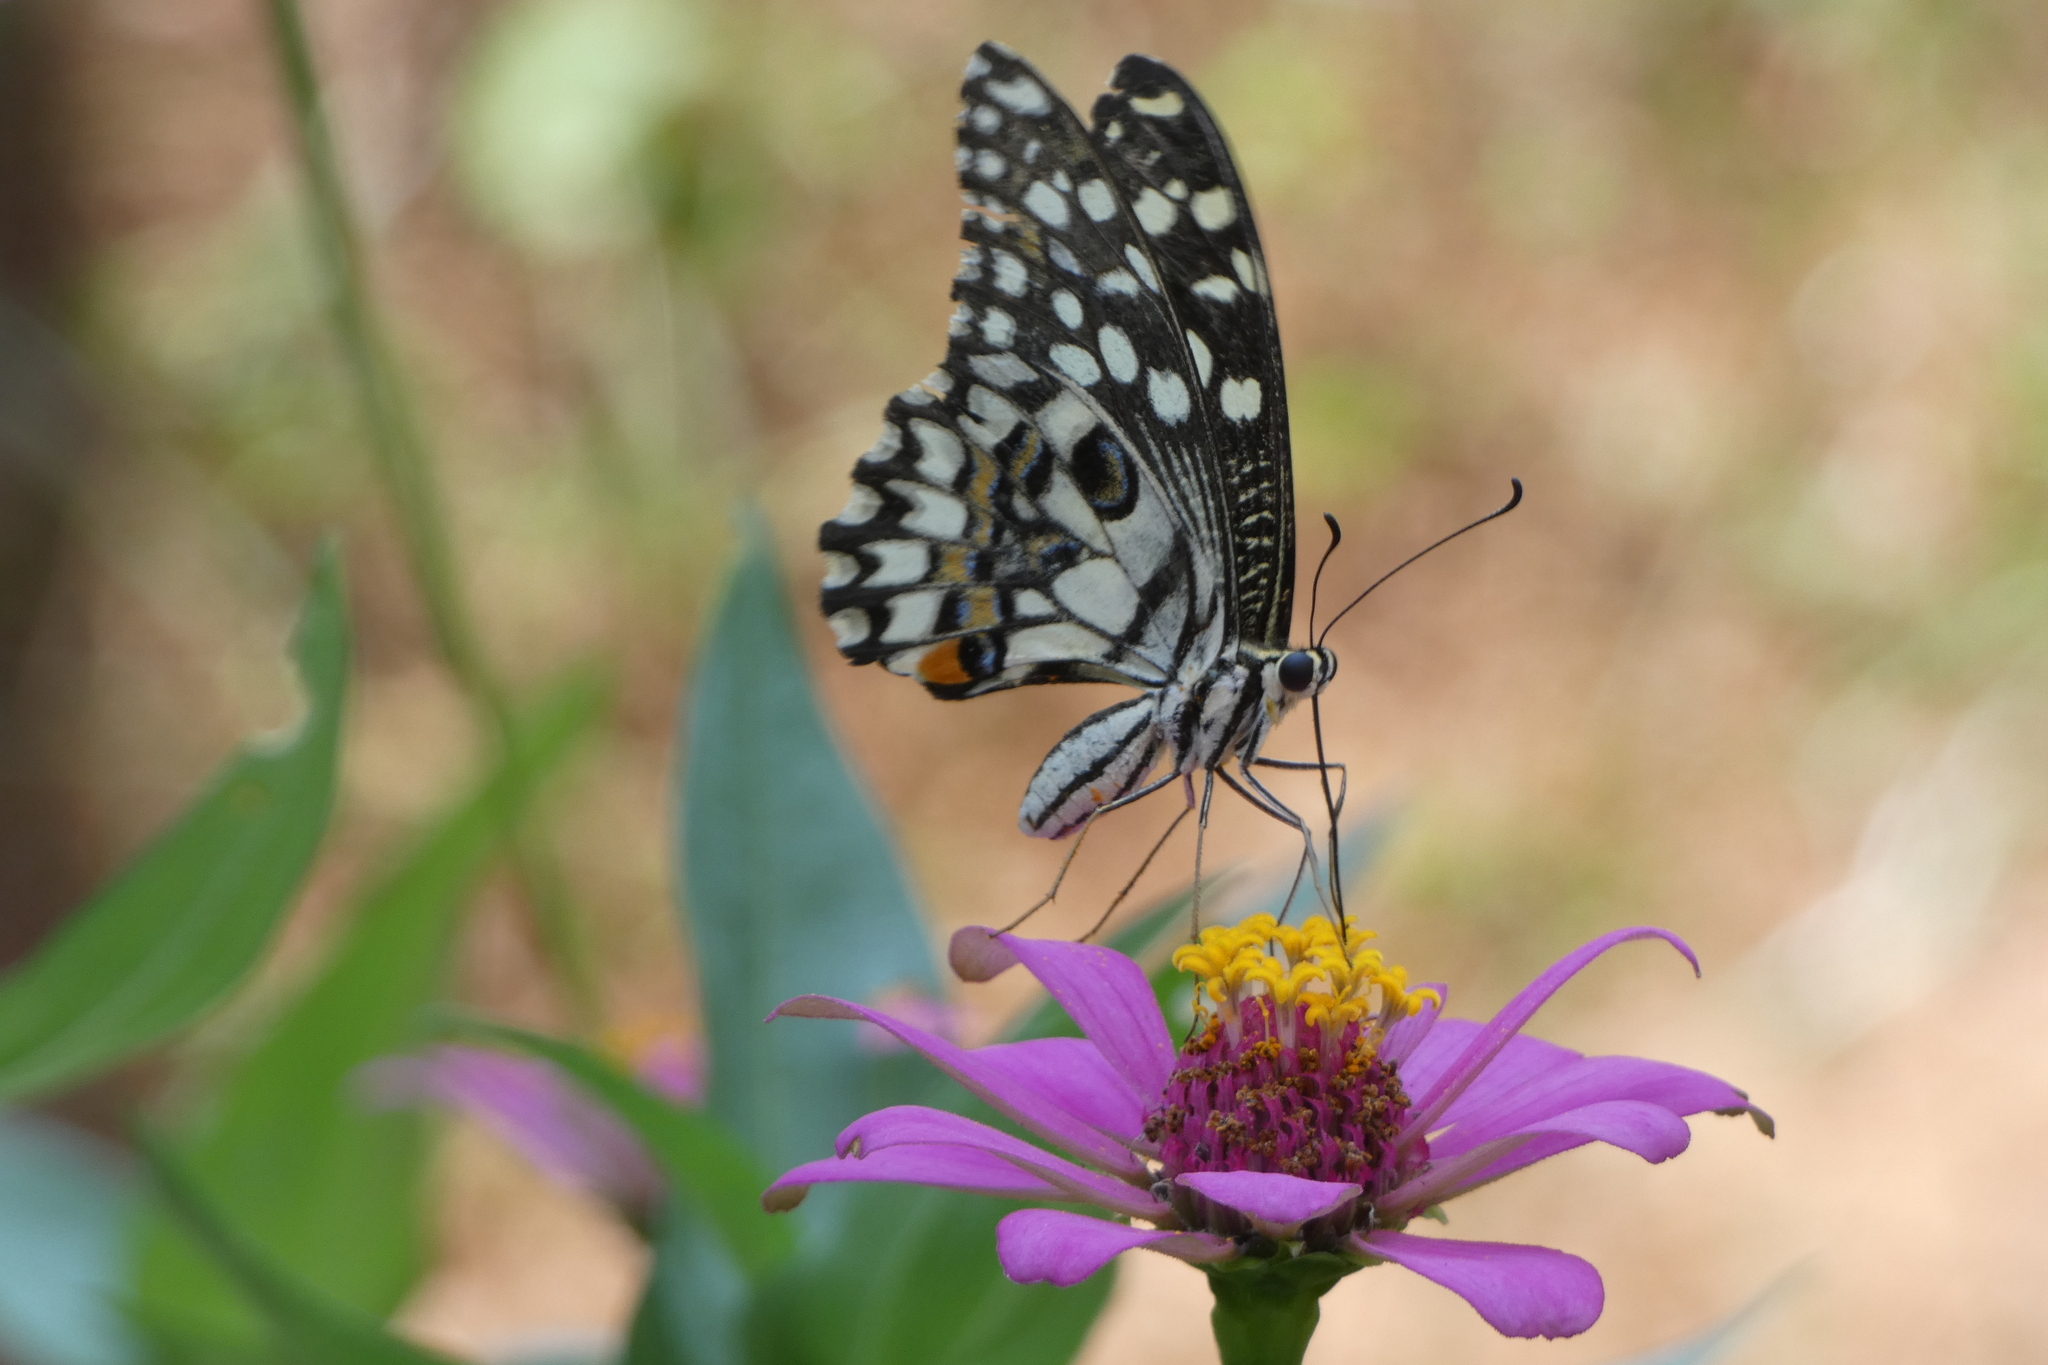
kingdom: Animalia
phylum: Arthropoda
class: Insecta
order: Lepidoptera
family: Papilionidae
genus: Papilio
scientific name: Papilio demoleus
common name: Lime butterfly
